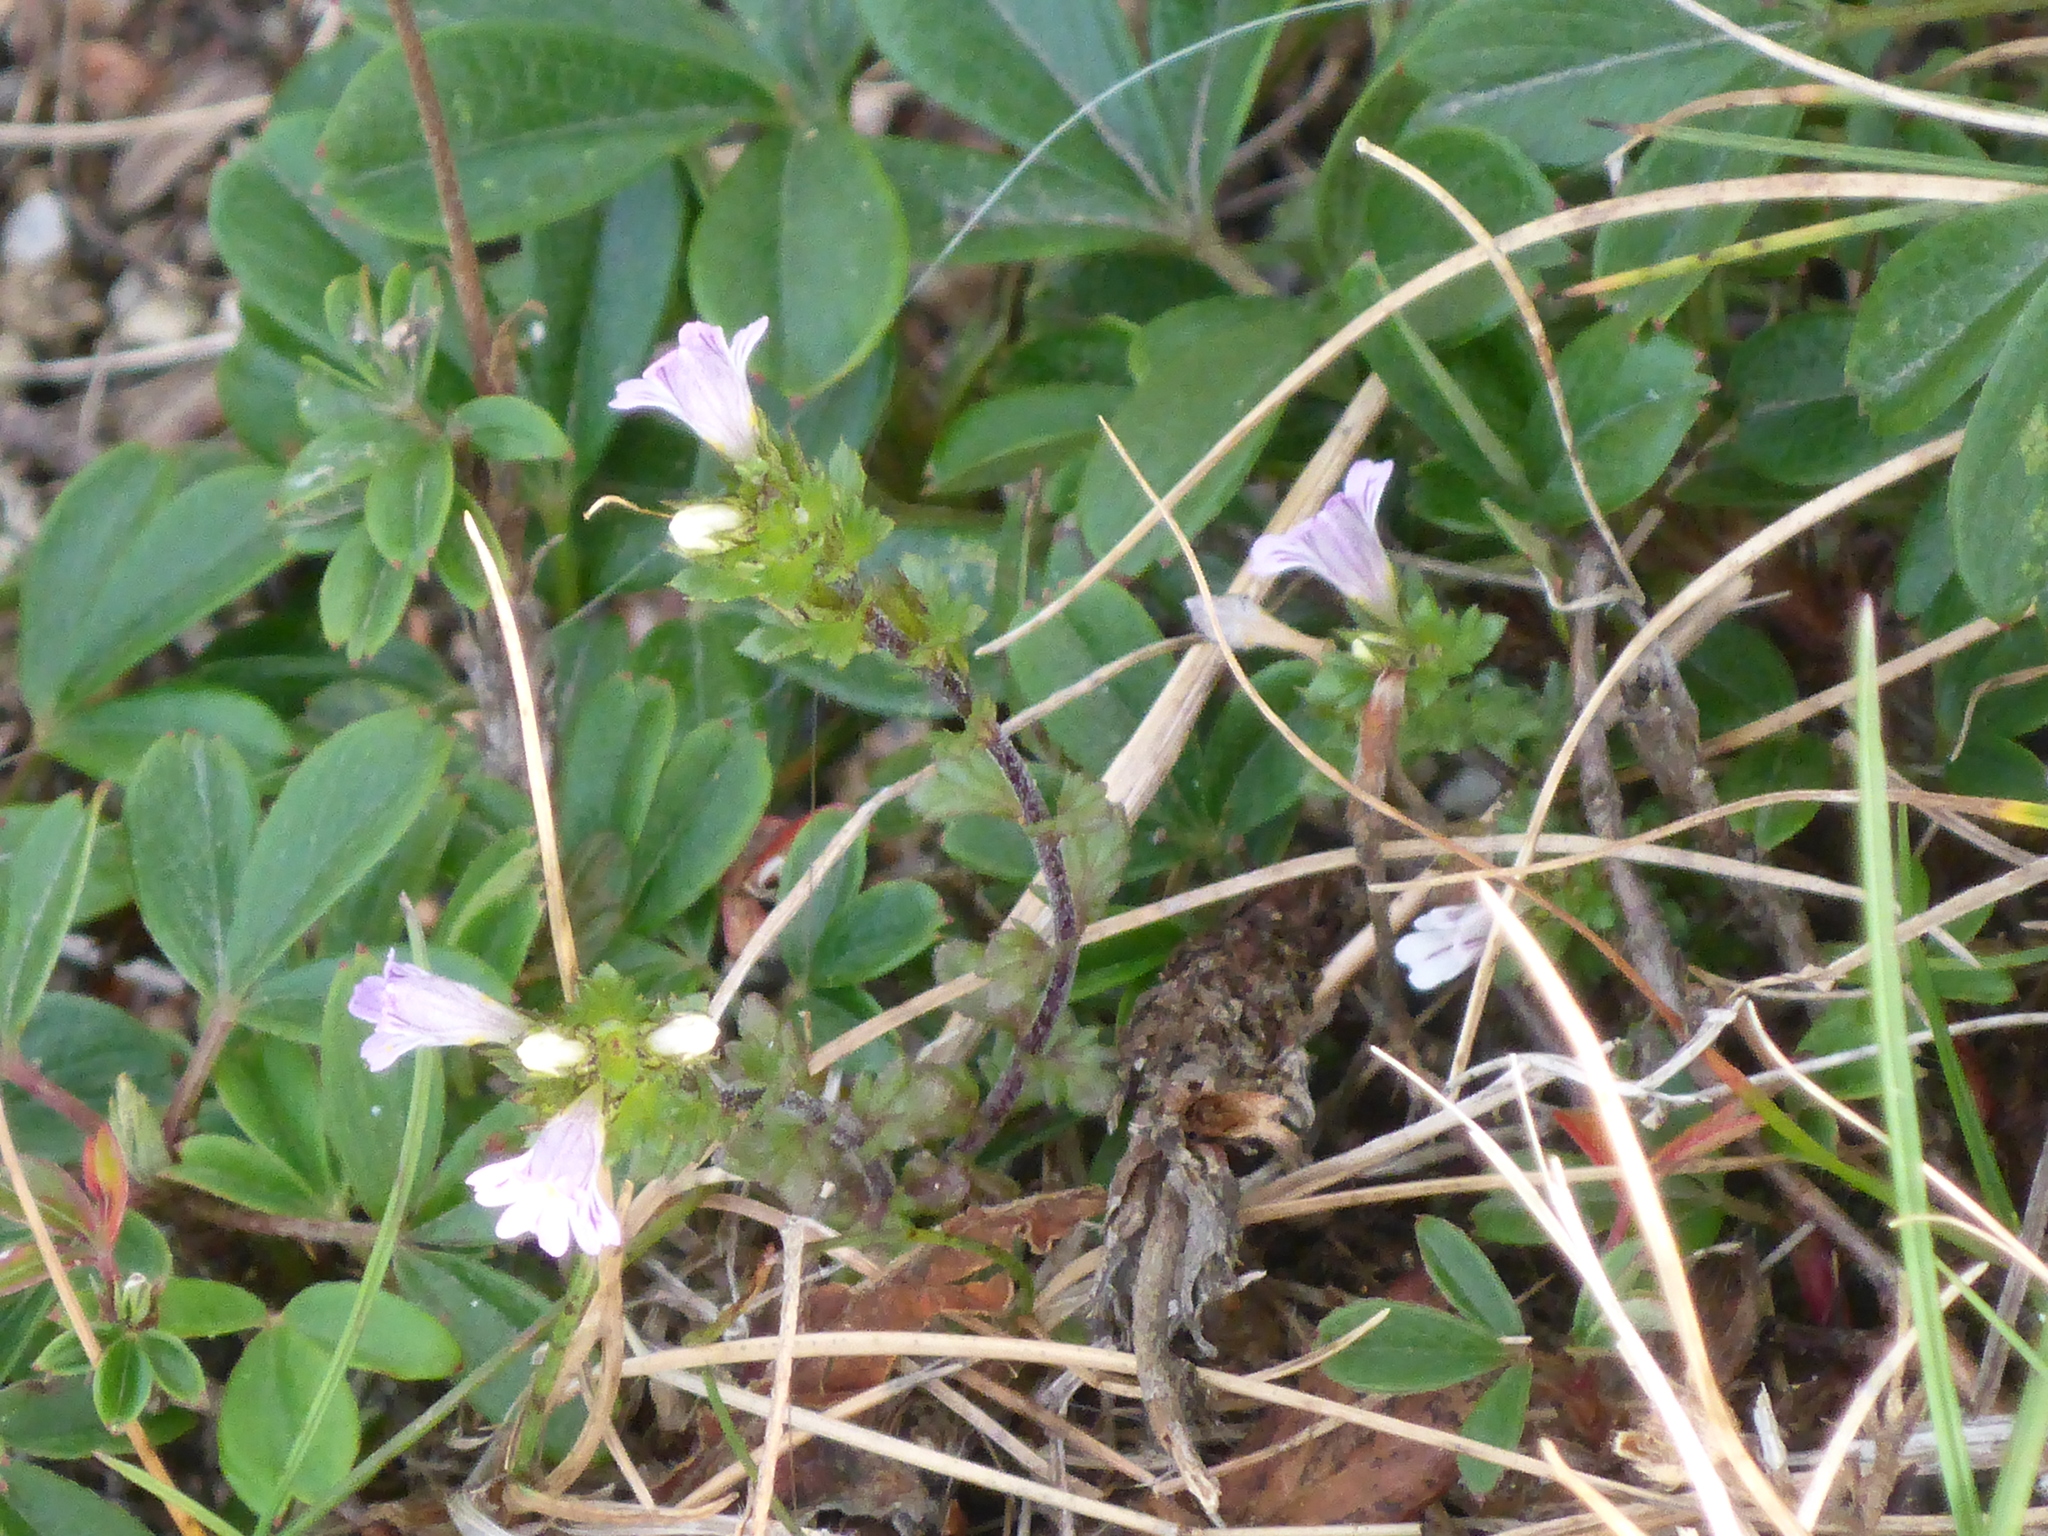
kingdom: Plantae
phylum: Tracheophyta
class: Magnoliopsida
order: Lamiales
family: Orobanchaceae
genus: Euphrasia
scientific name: Euphrasia nemorosa
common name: Common eyebright
